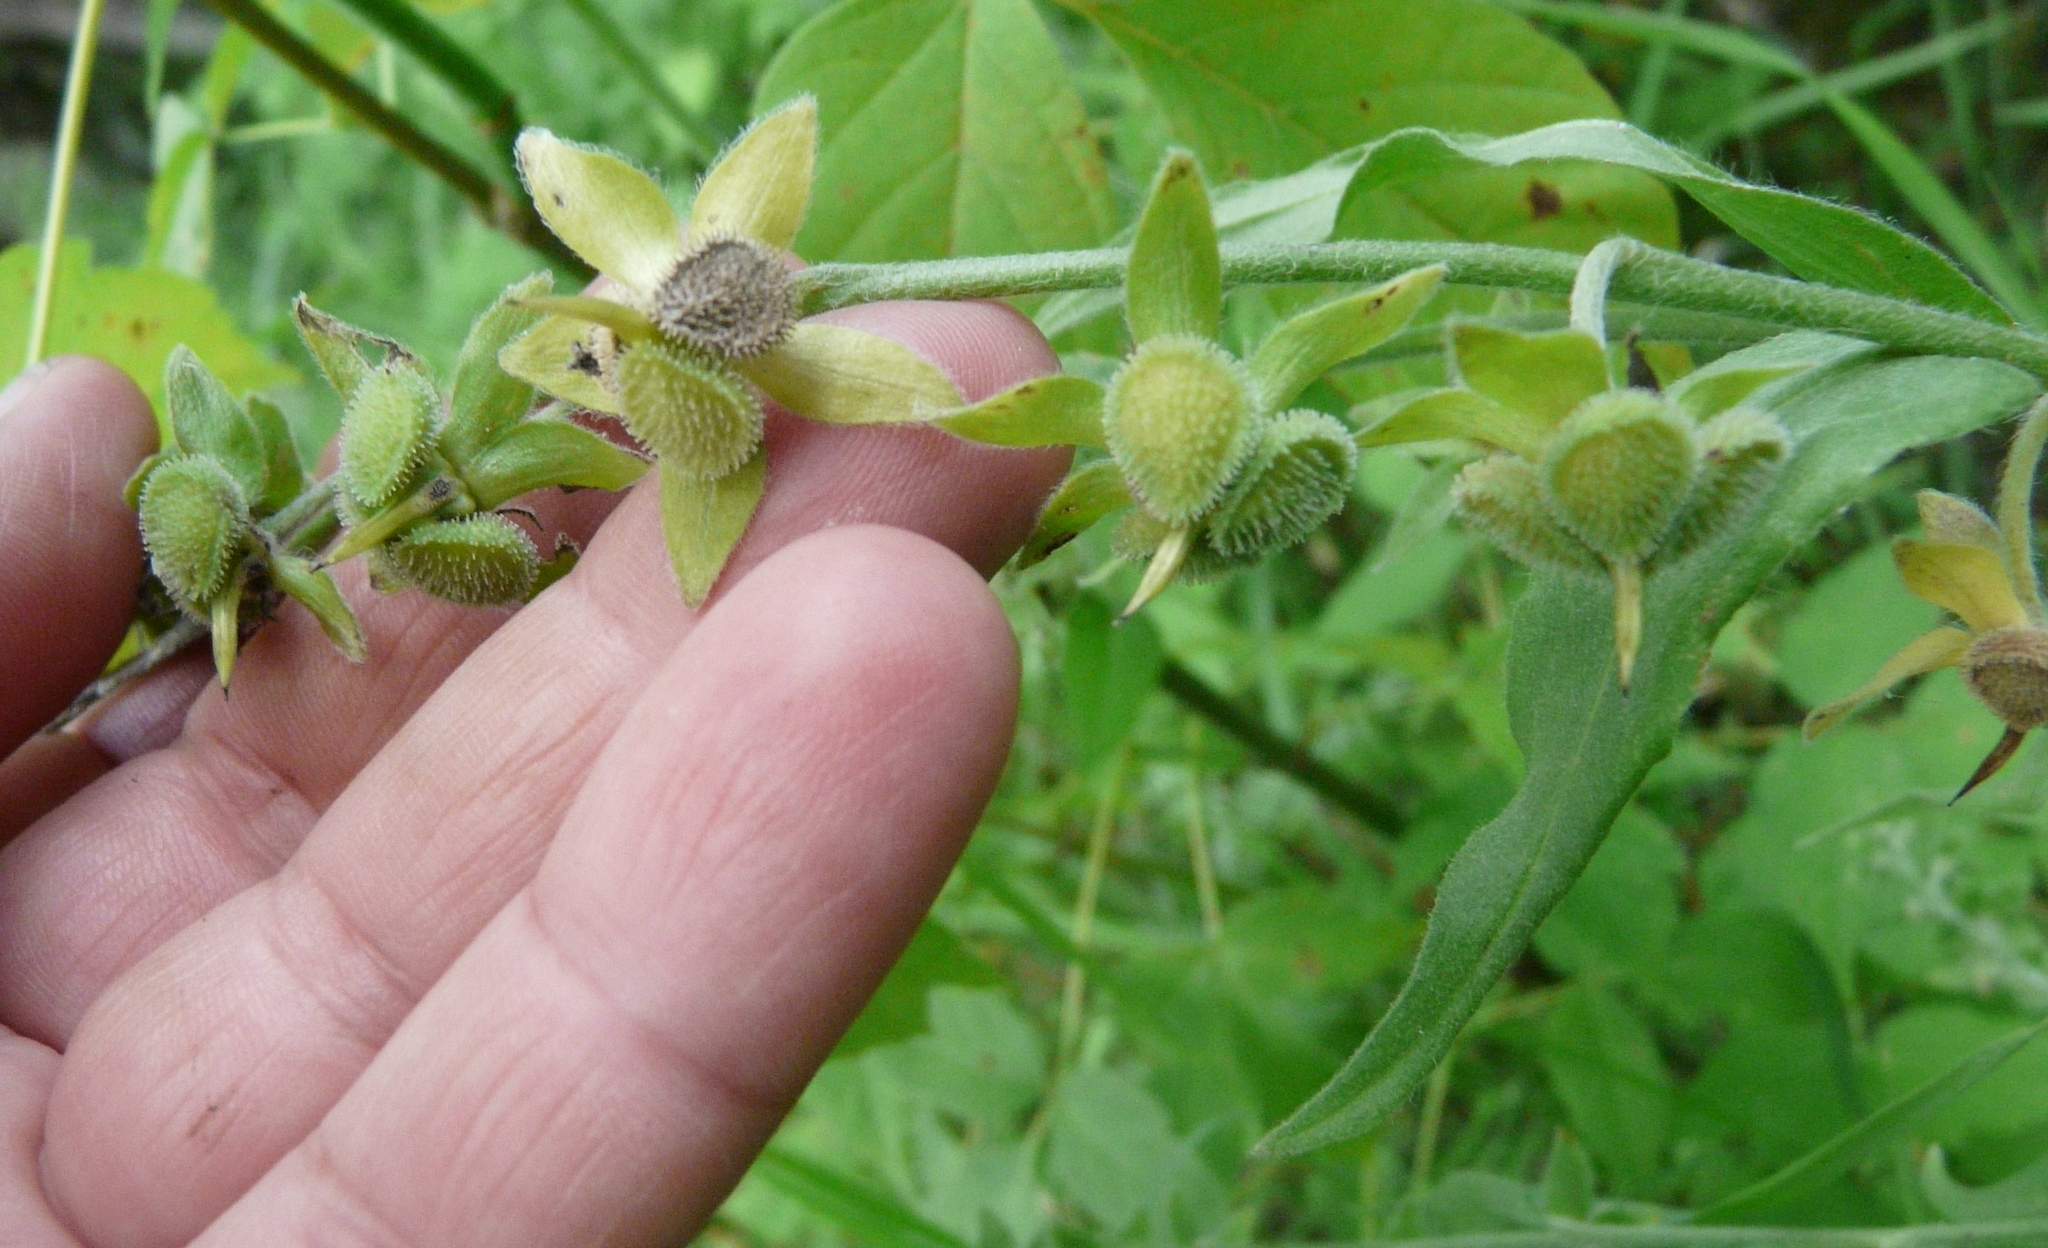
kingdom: Plantae
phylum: Tracheophyta
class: Magnoliopsida
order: Boraginales
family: Boraginaceae
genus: Cynoglossum
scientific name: Cynoglossum officinale
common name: Hound's-tongue
